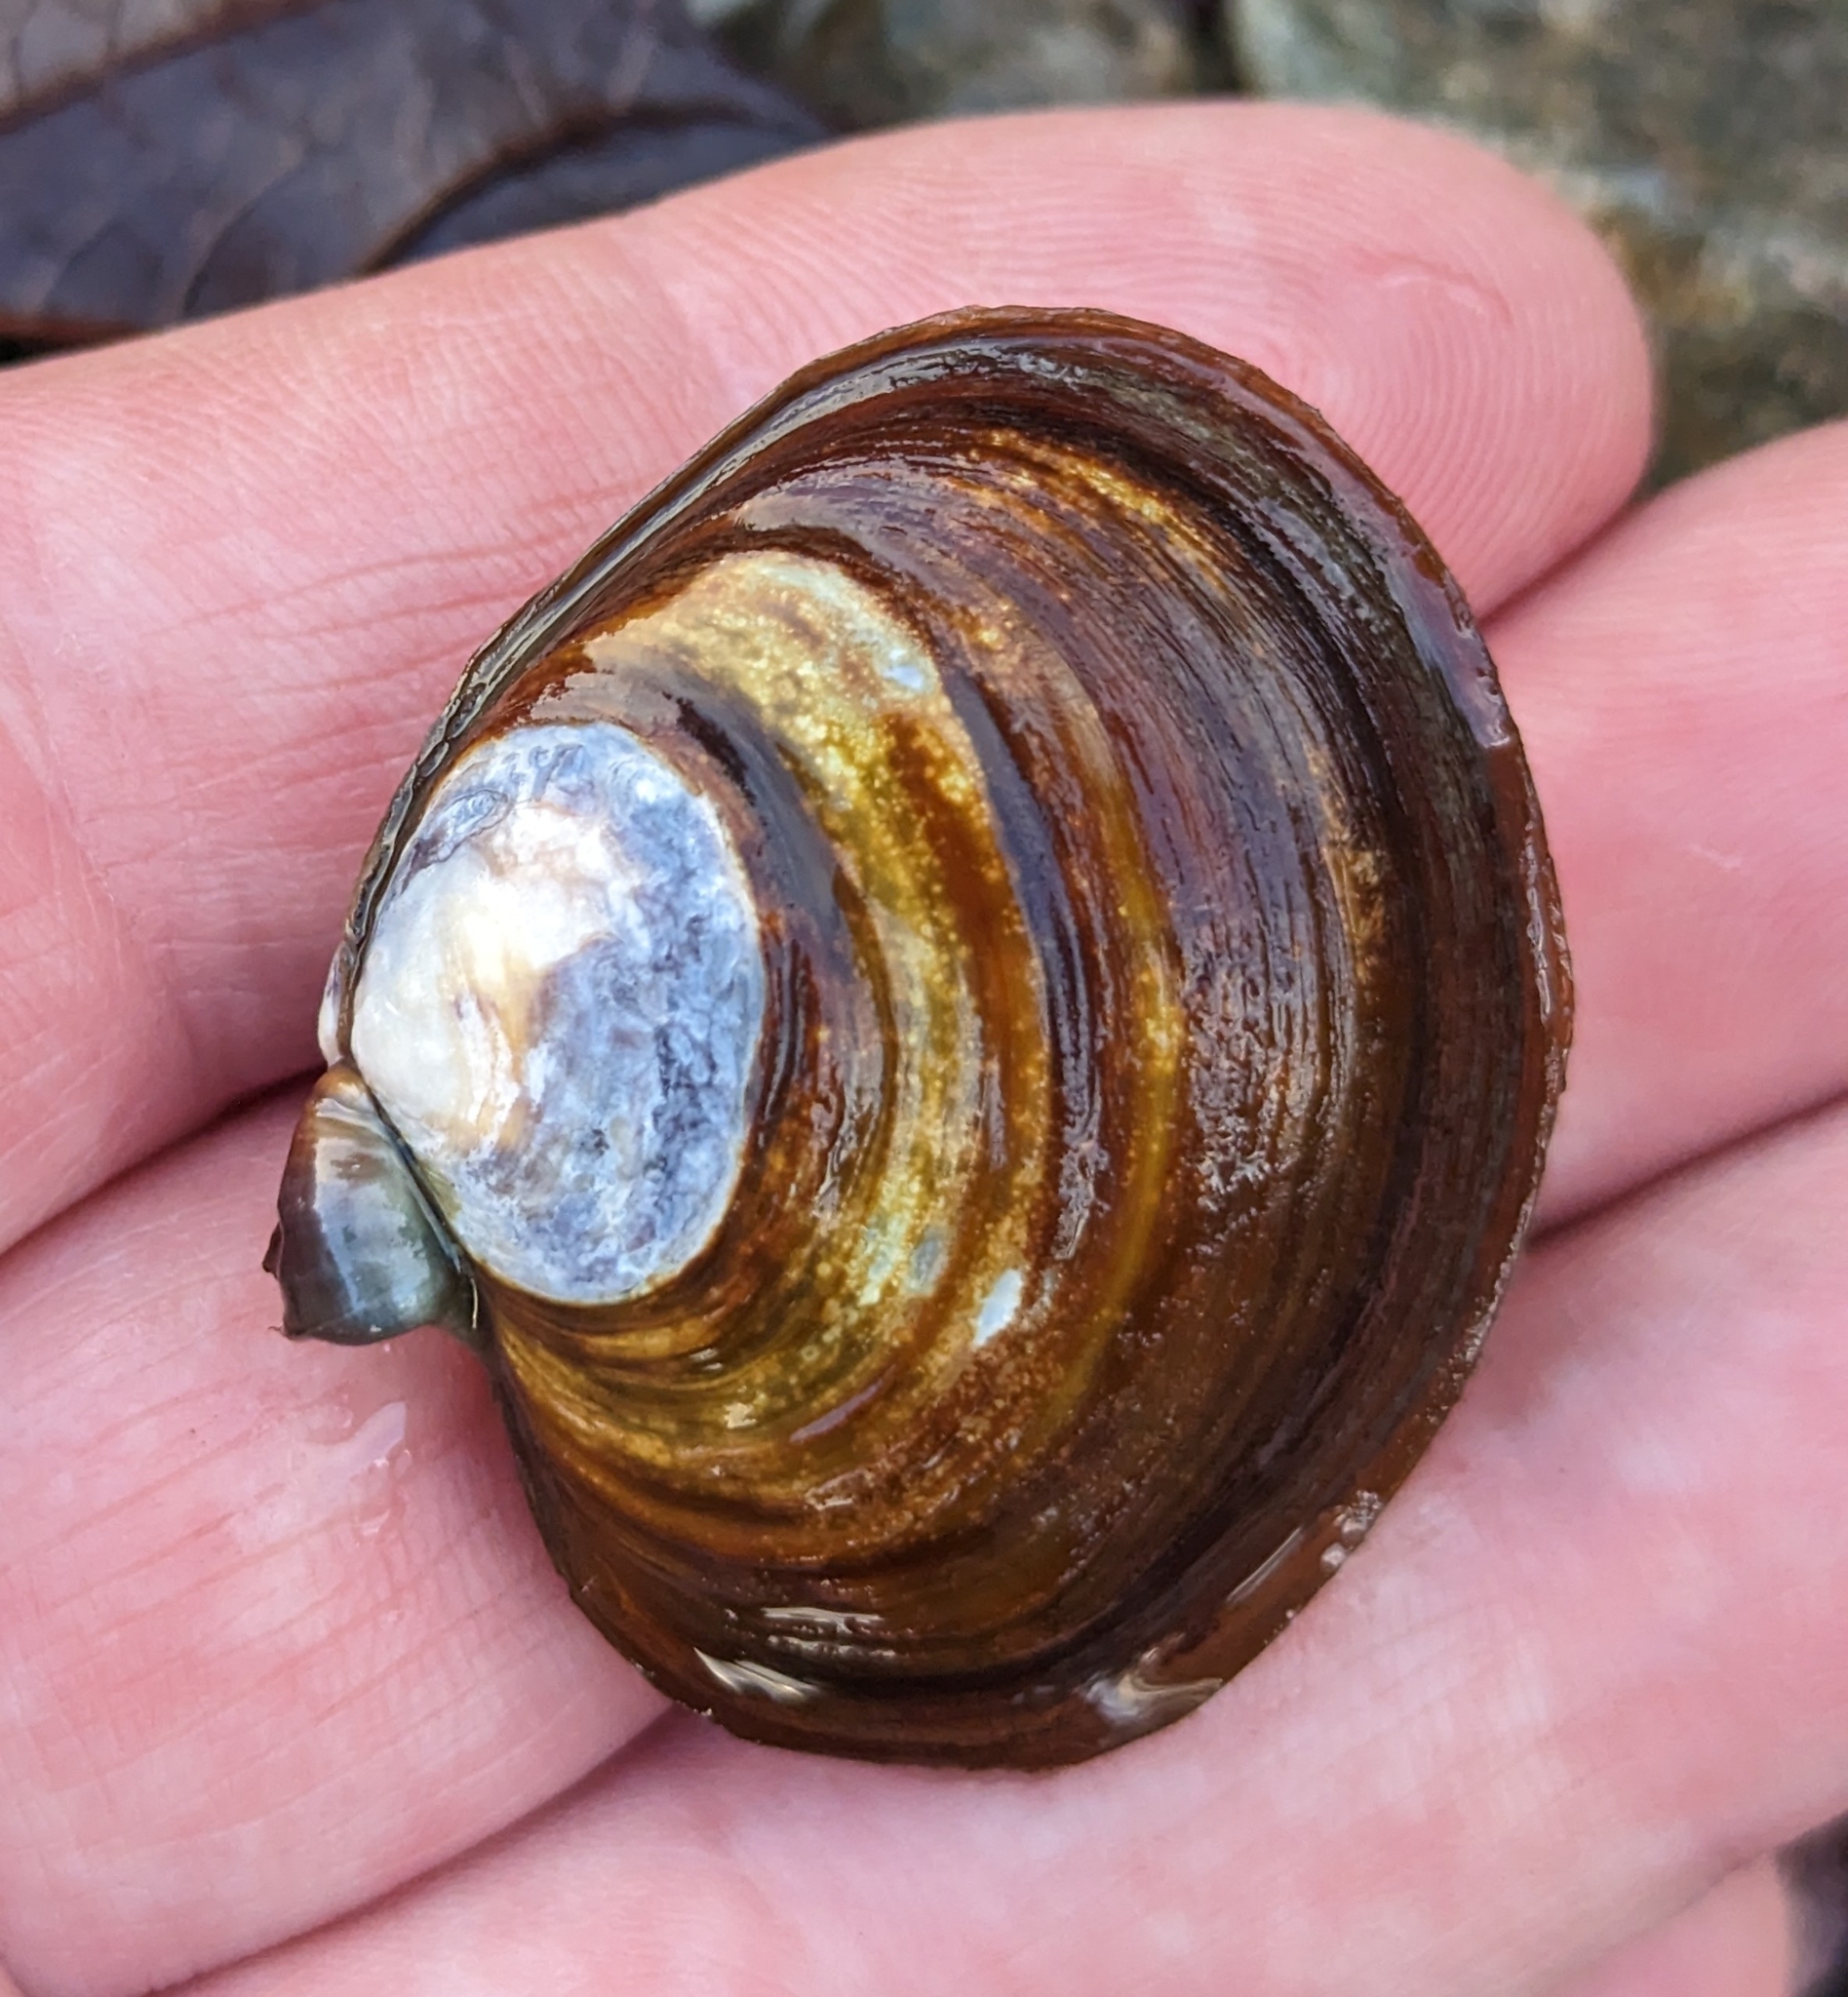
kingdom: Animalia
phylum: Mollusca
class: Bivalvia
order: Cardiida
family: Psammobiidae
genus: Nuttallia
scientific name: Nuttallia obscurata
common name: Purple mahogany-clam
